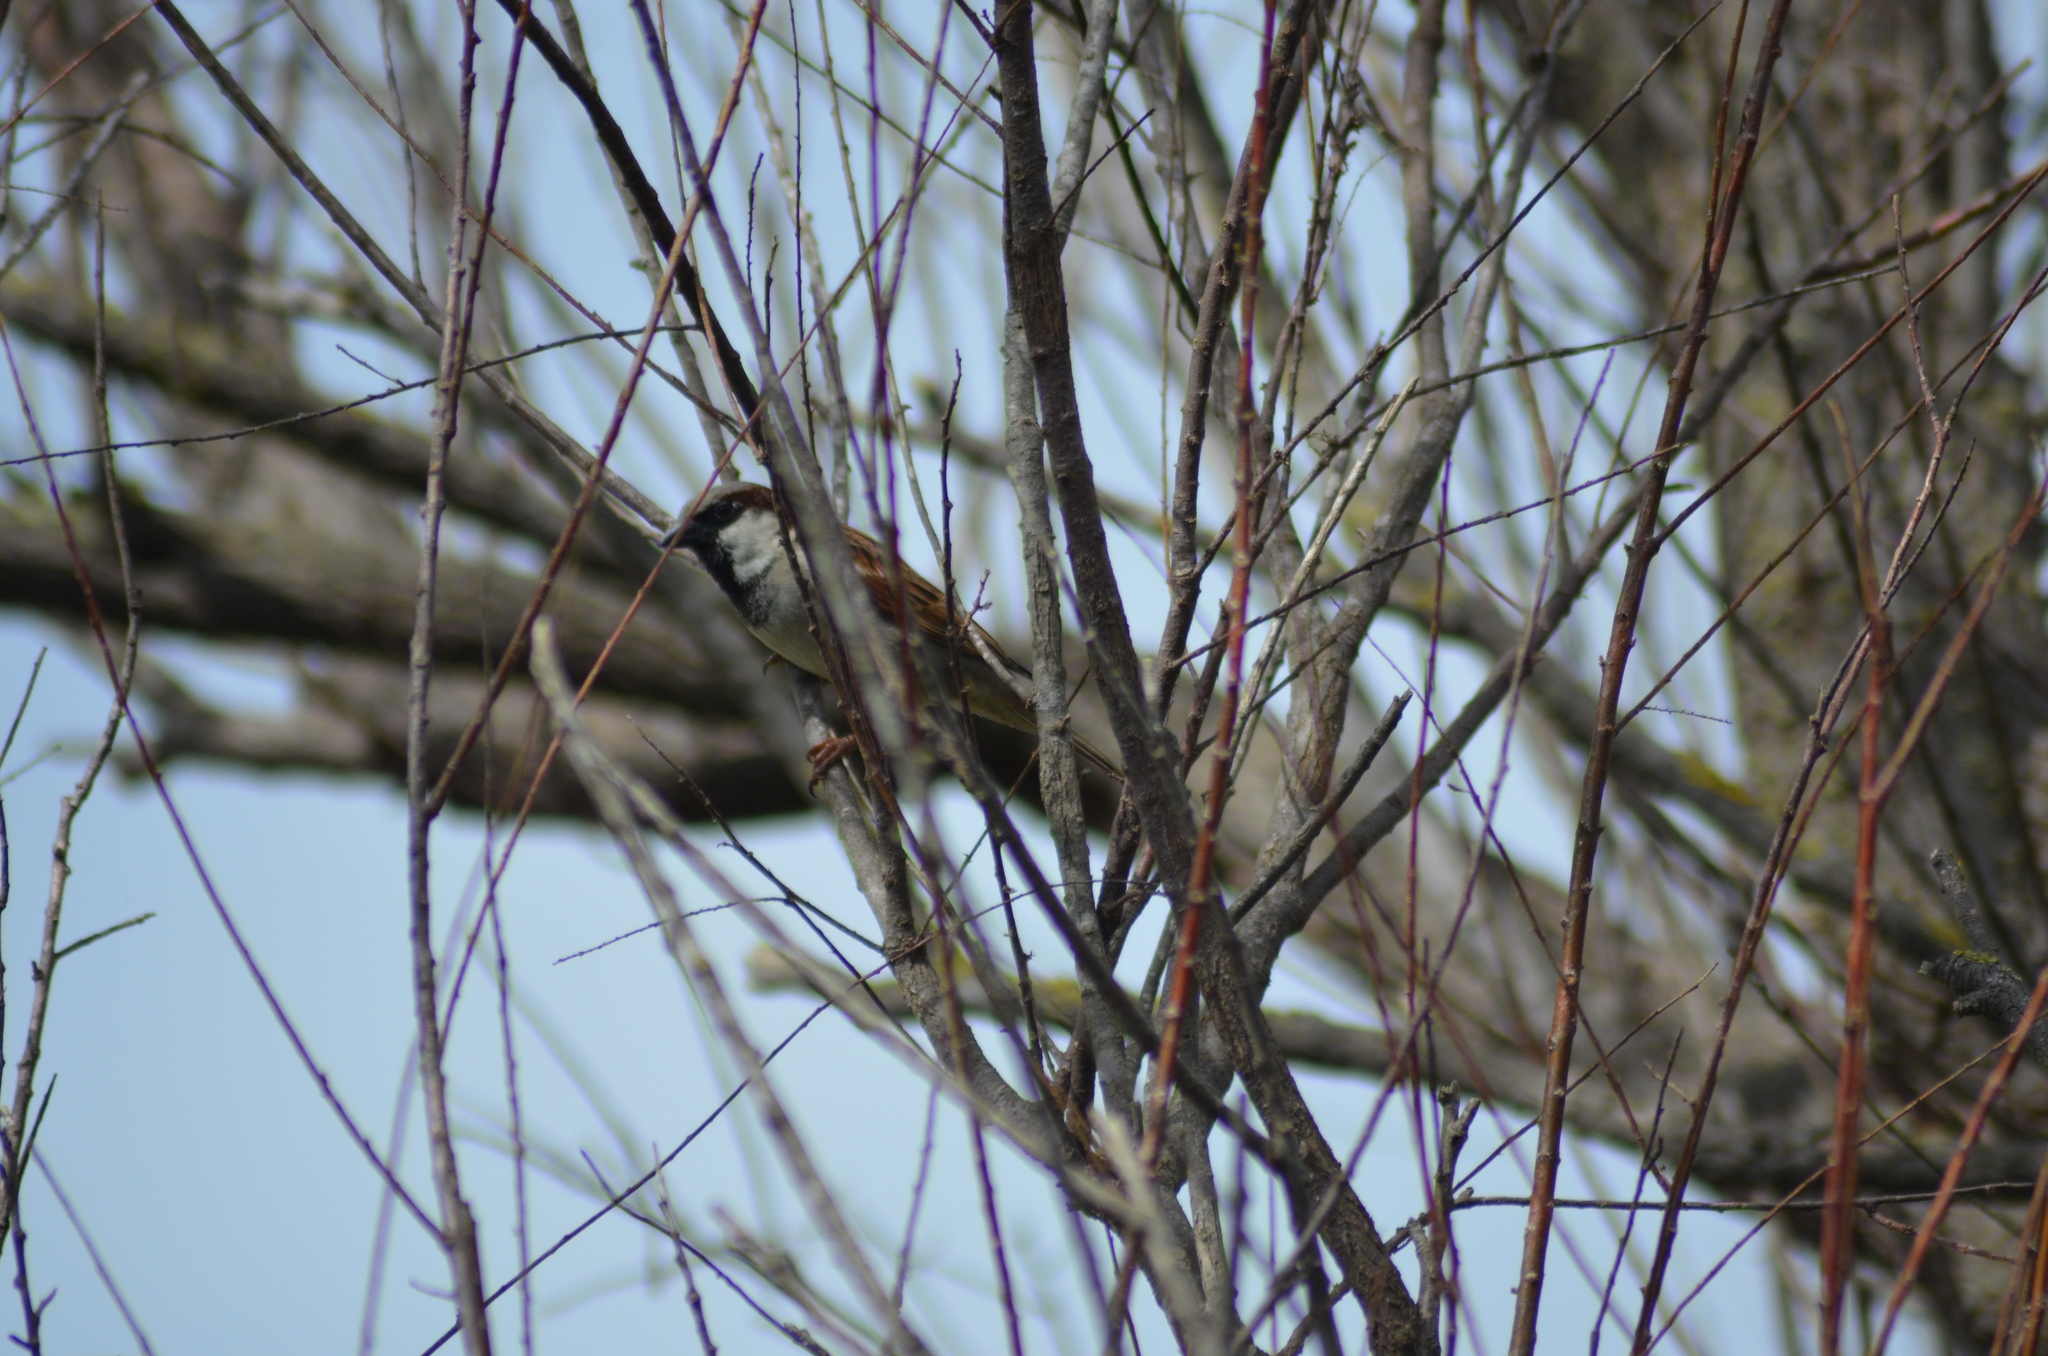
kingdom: Animalia
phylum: Chordata
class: Aves
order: Passeriformes
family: Passeridae
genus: Passer
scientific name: Passer domesticus
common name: House sparrow
